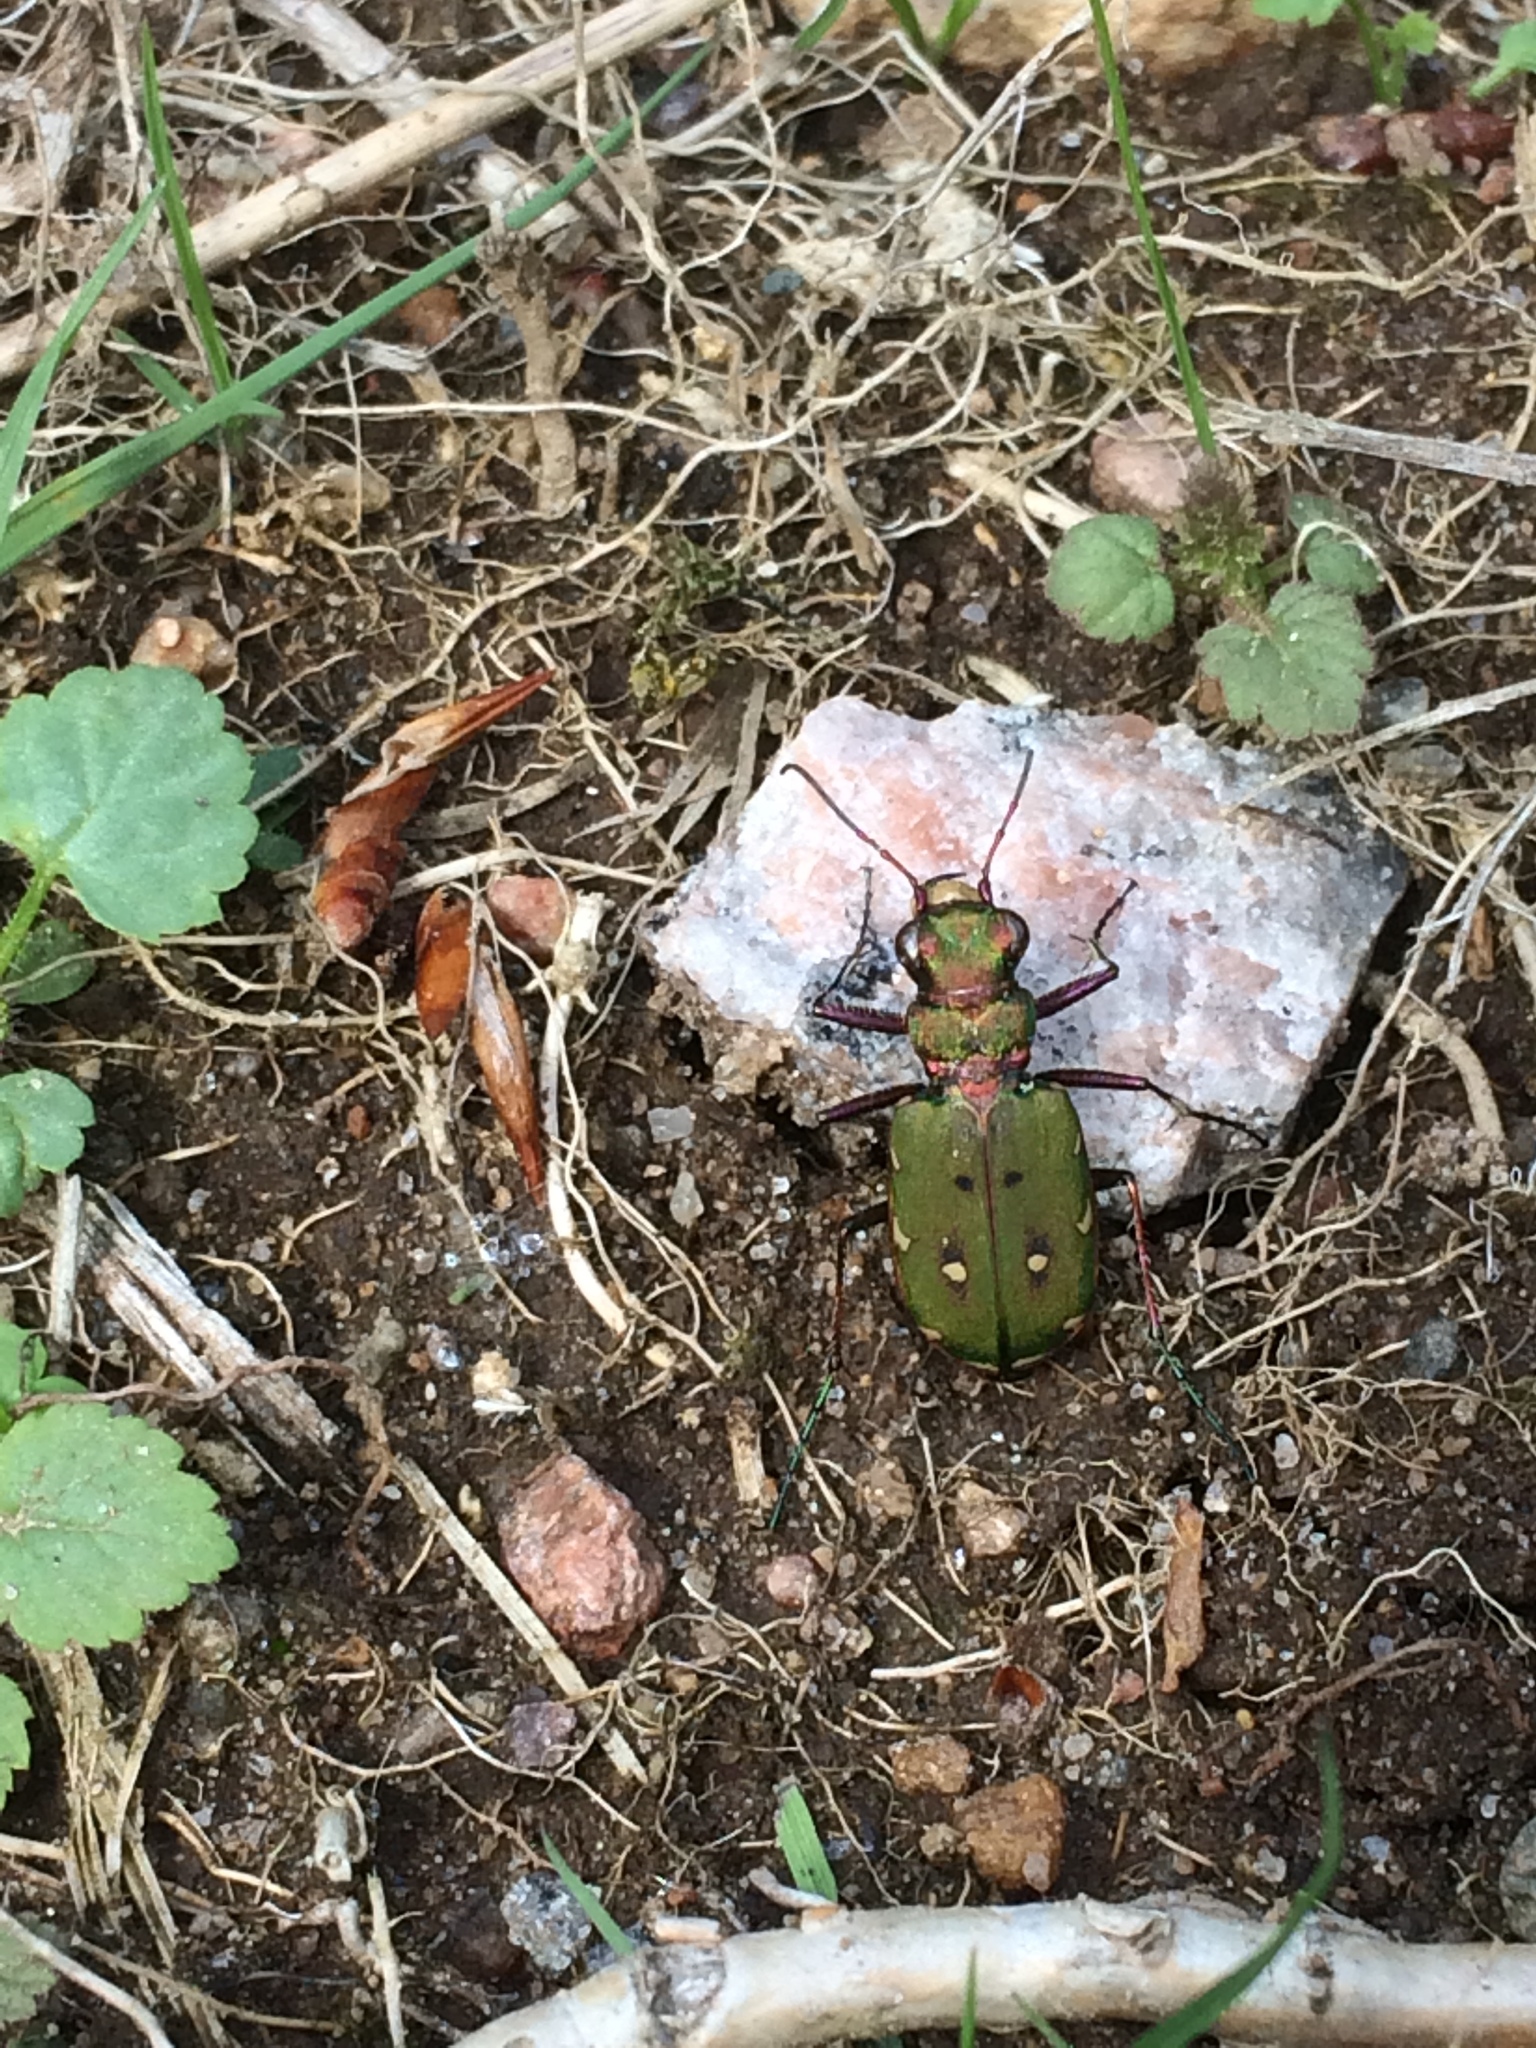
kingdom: Animalia
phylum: Arthropoda
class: Insecta
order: Coleoptera
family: Carabidae
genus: Cicindela
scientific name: Cicindela campestris
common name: Common tiger beetle
